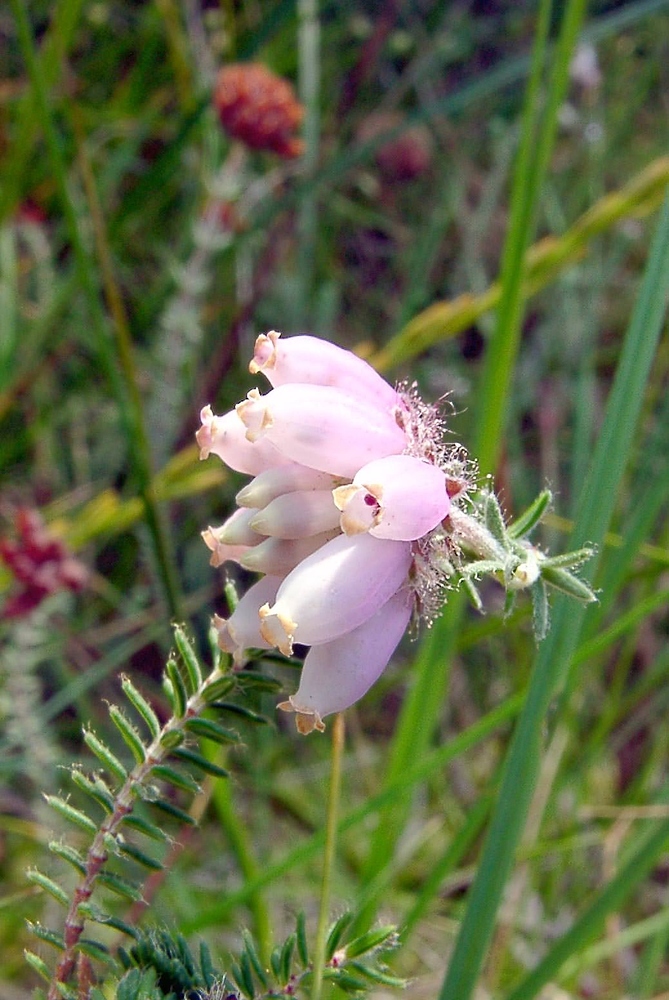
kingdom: Plantae
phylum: Tracheophyta
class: Magnoliopsida
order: Ericales
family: Ericaceae
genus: Erica
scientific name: Erica tetralix
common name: Cross-leaved heath
